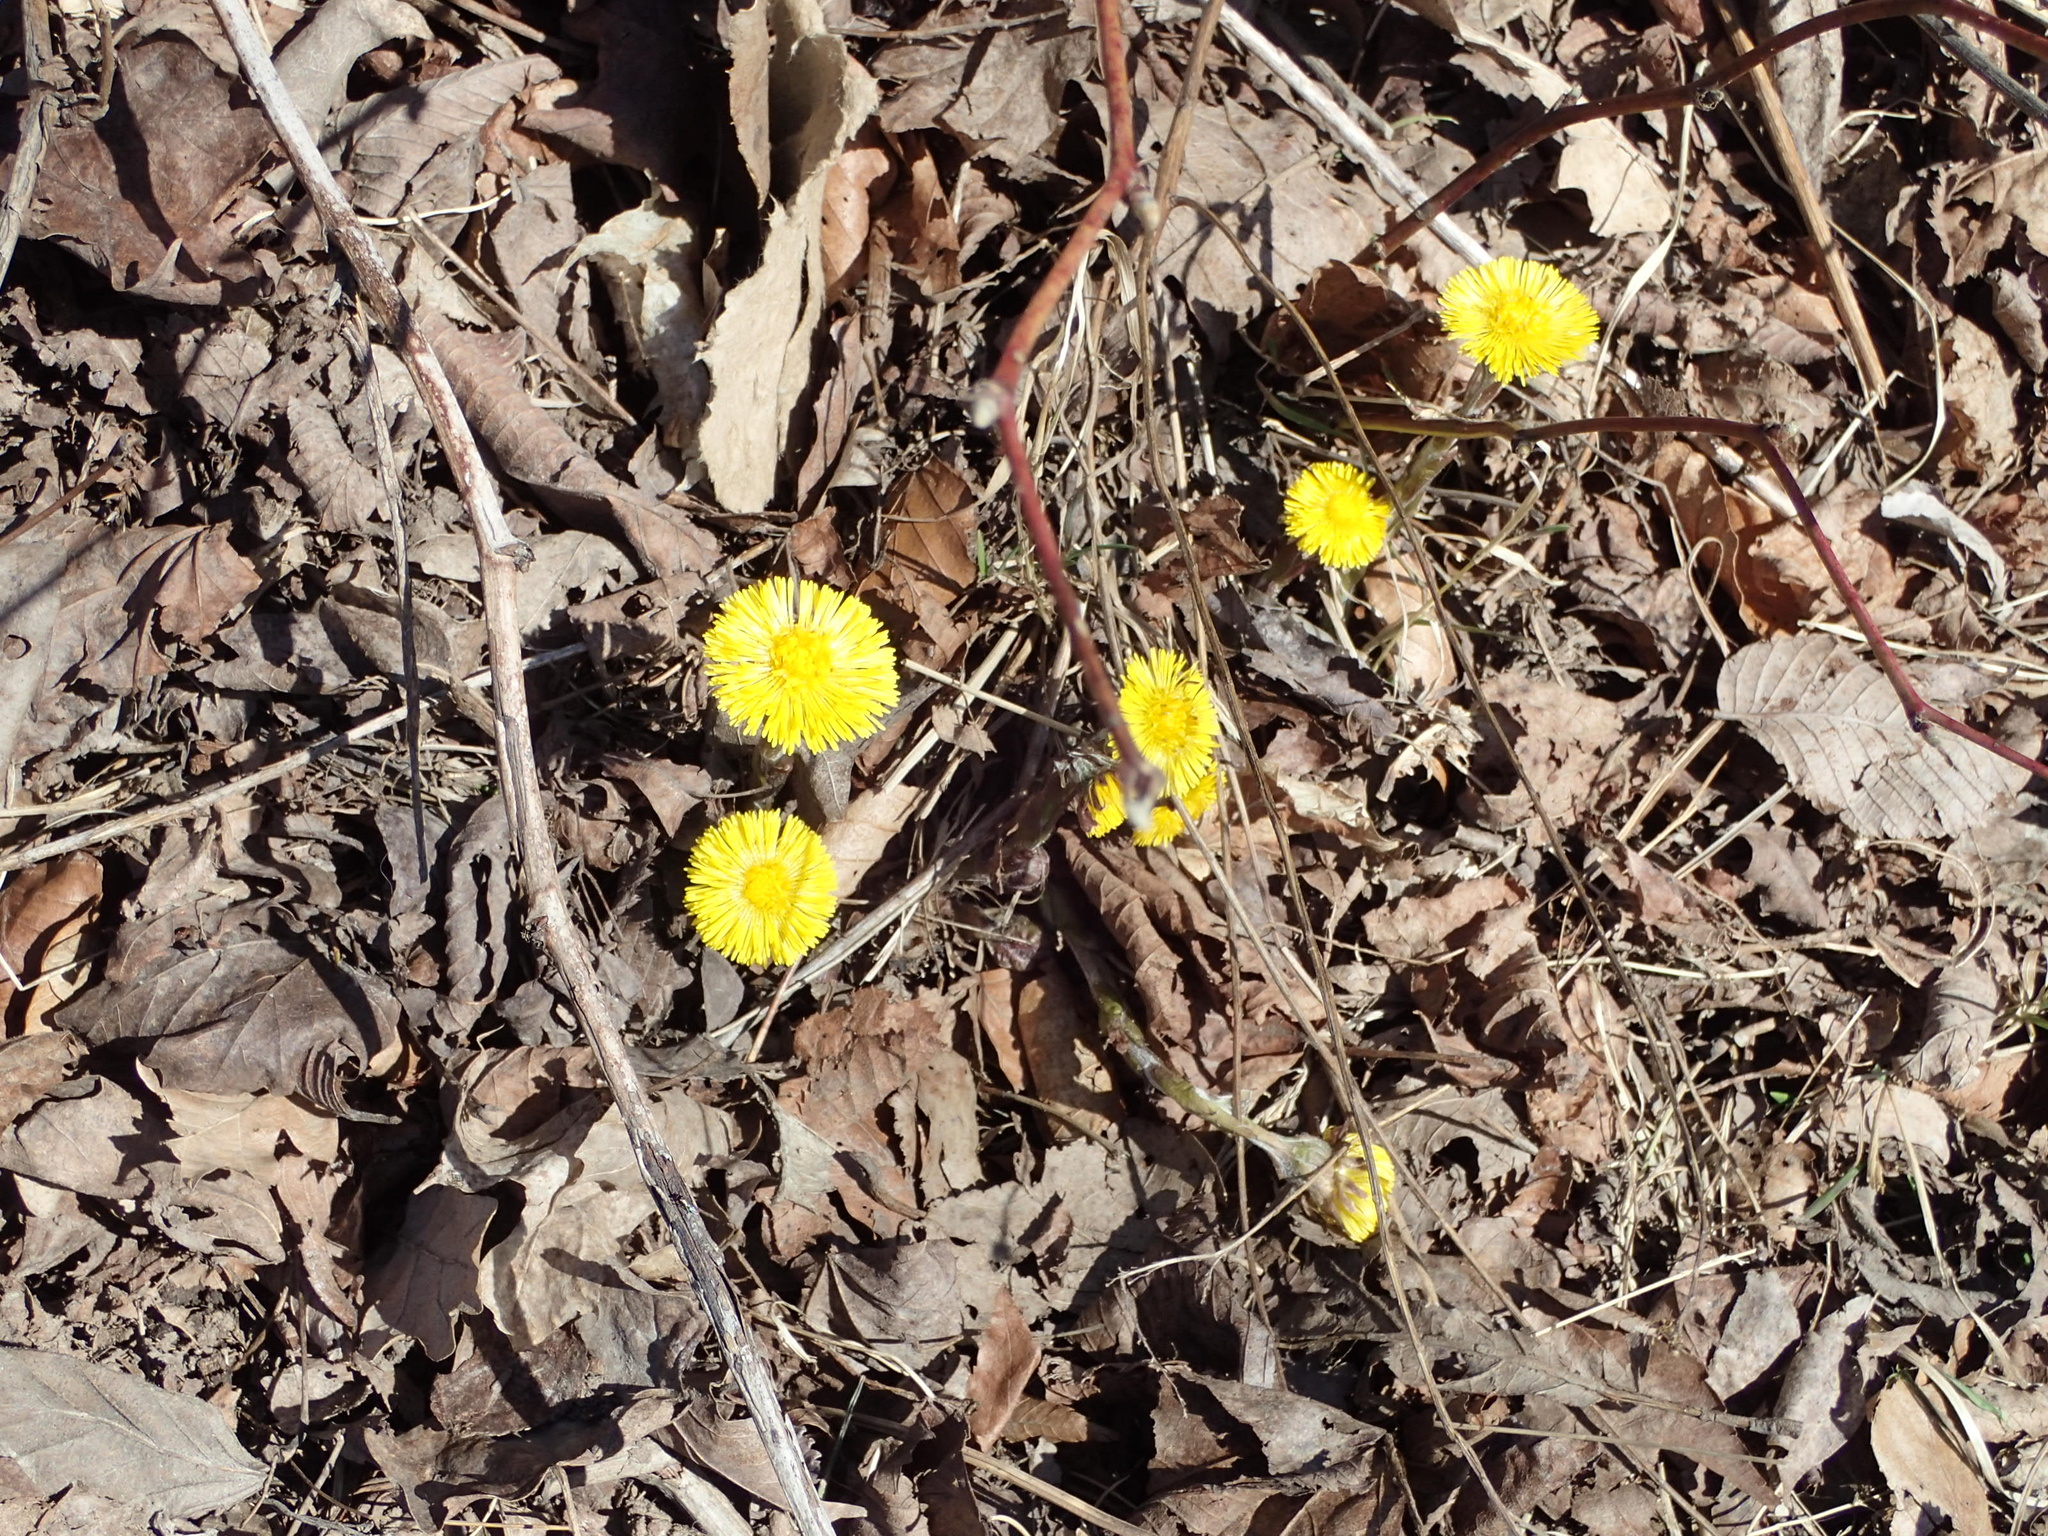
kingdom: Plantae
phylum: Tracheophyta
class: Magnoliopsida
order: Asterales
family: Asteraceae
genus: Tussilago
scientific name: Tussilago farfara
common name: Coltsfoot
